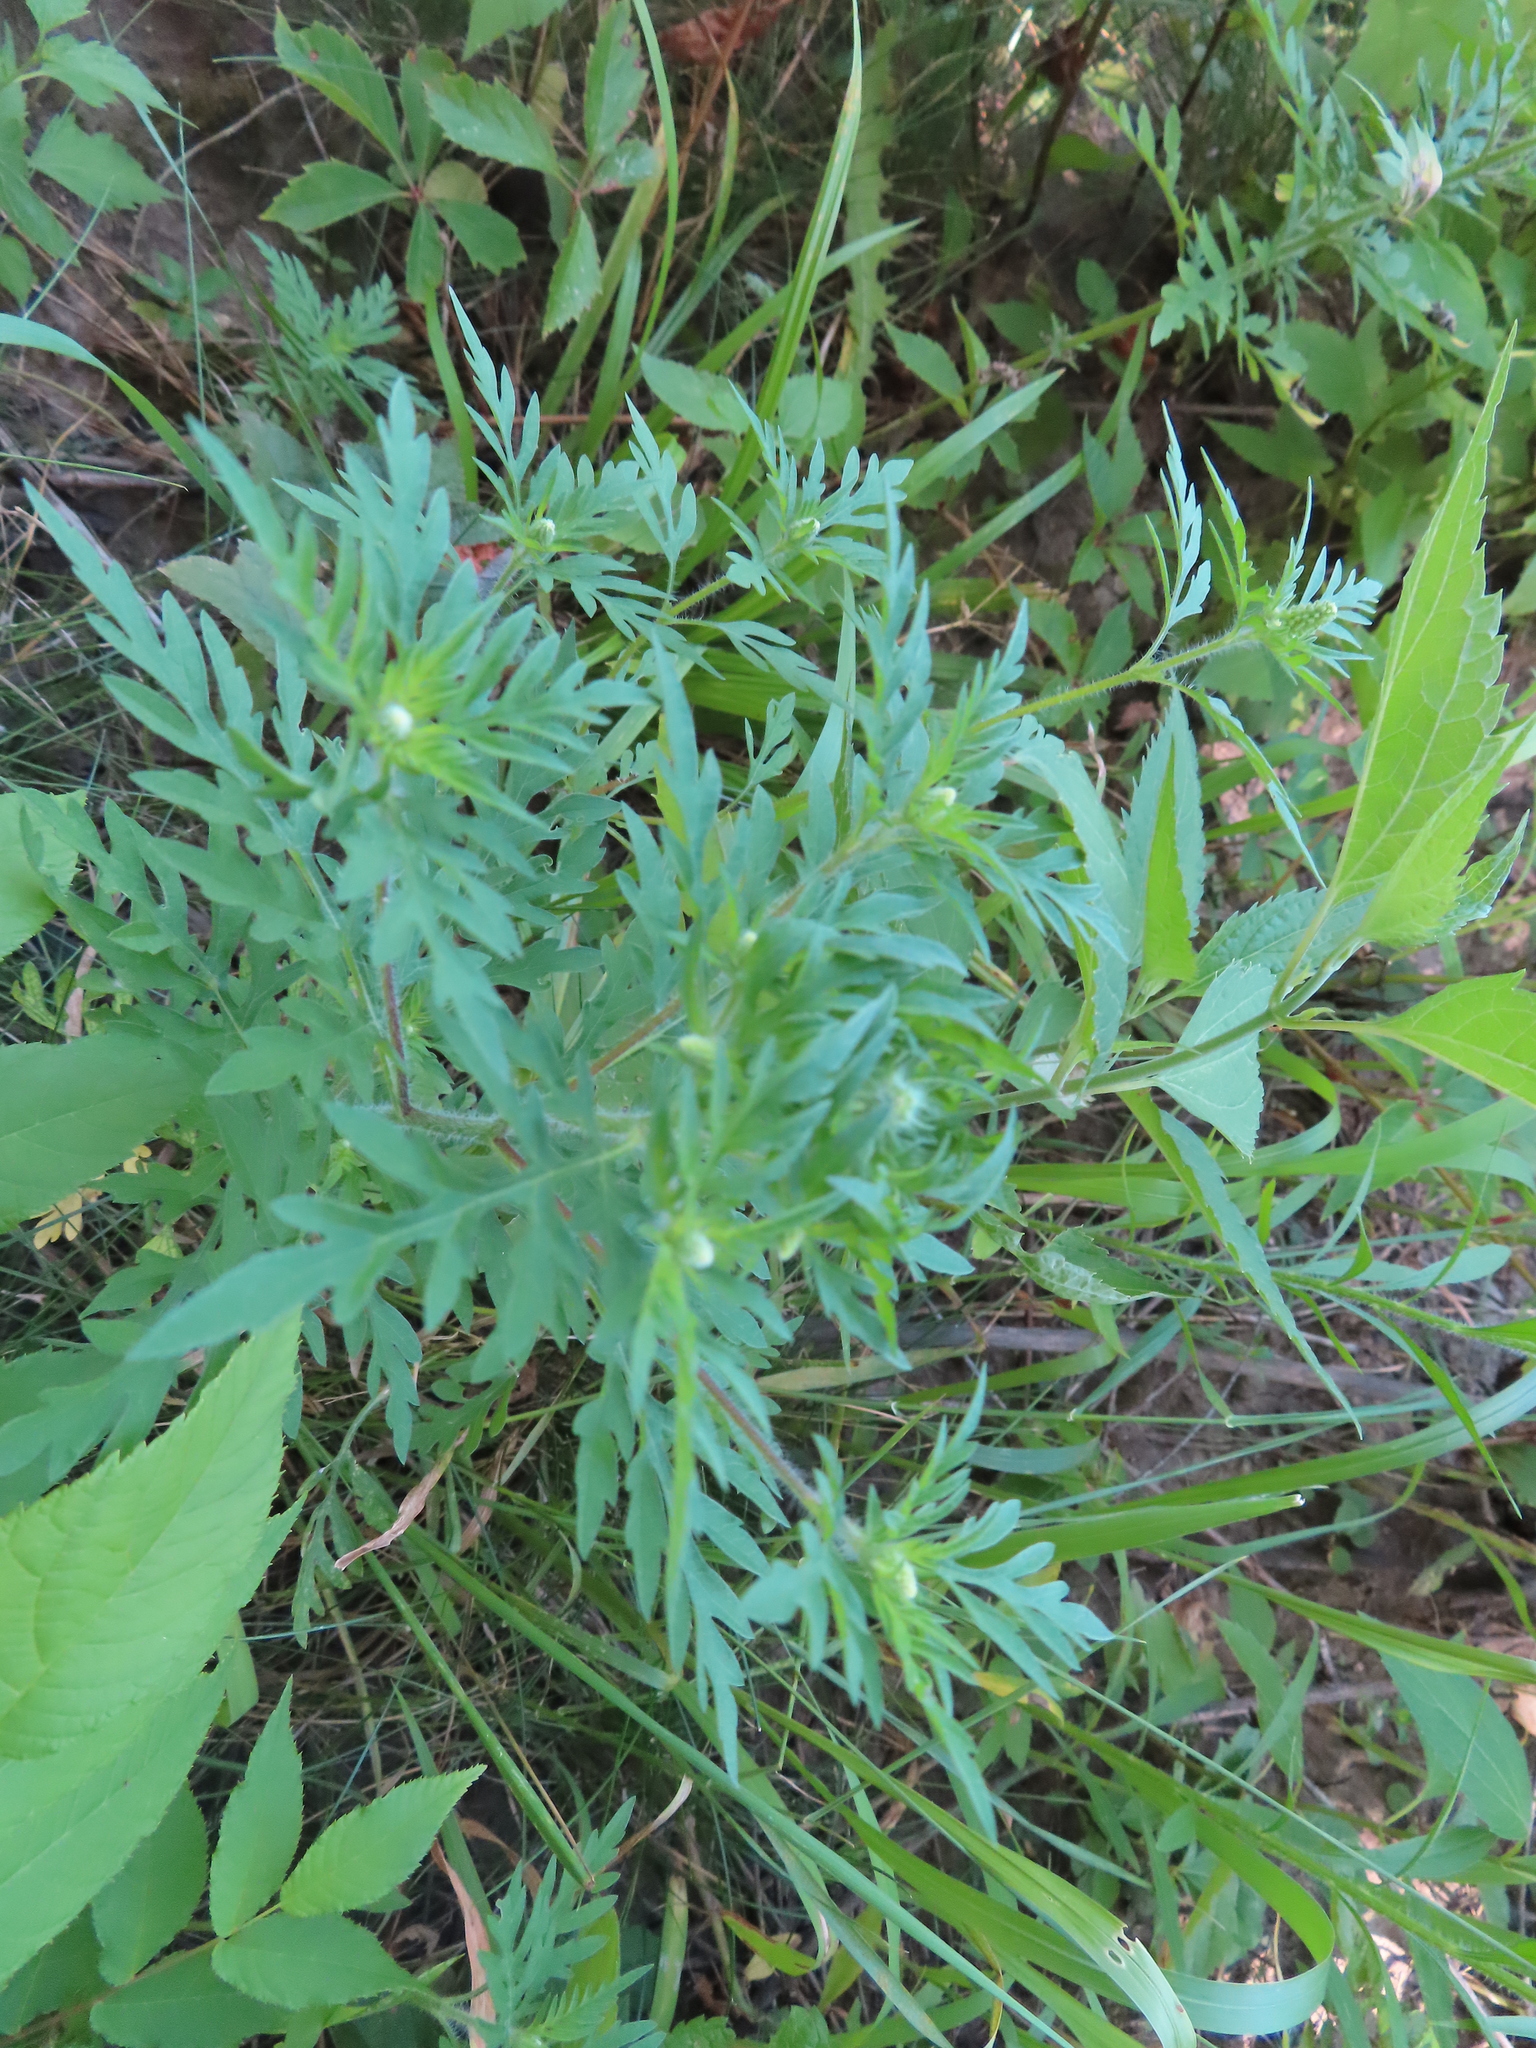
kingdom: Plantae
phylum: Tracheophyta
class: Magnoliopsida
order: Asterales
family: Asteraceae
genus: Ambrosia
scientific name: Ambrosia artemisiifolia
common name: Annual ragweed
